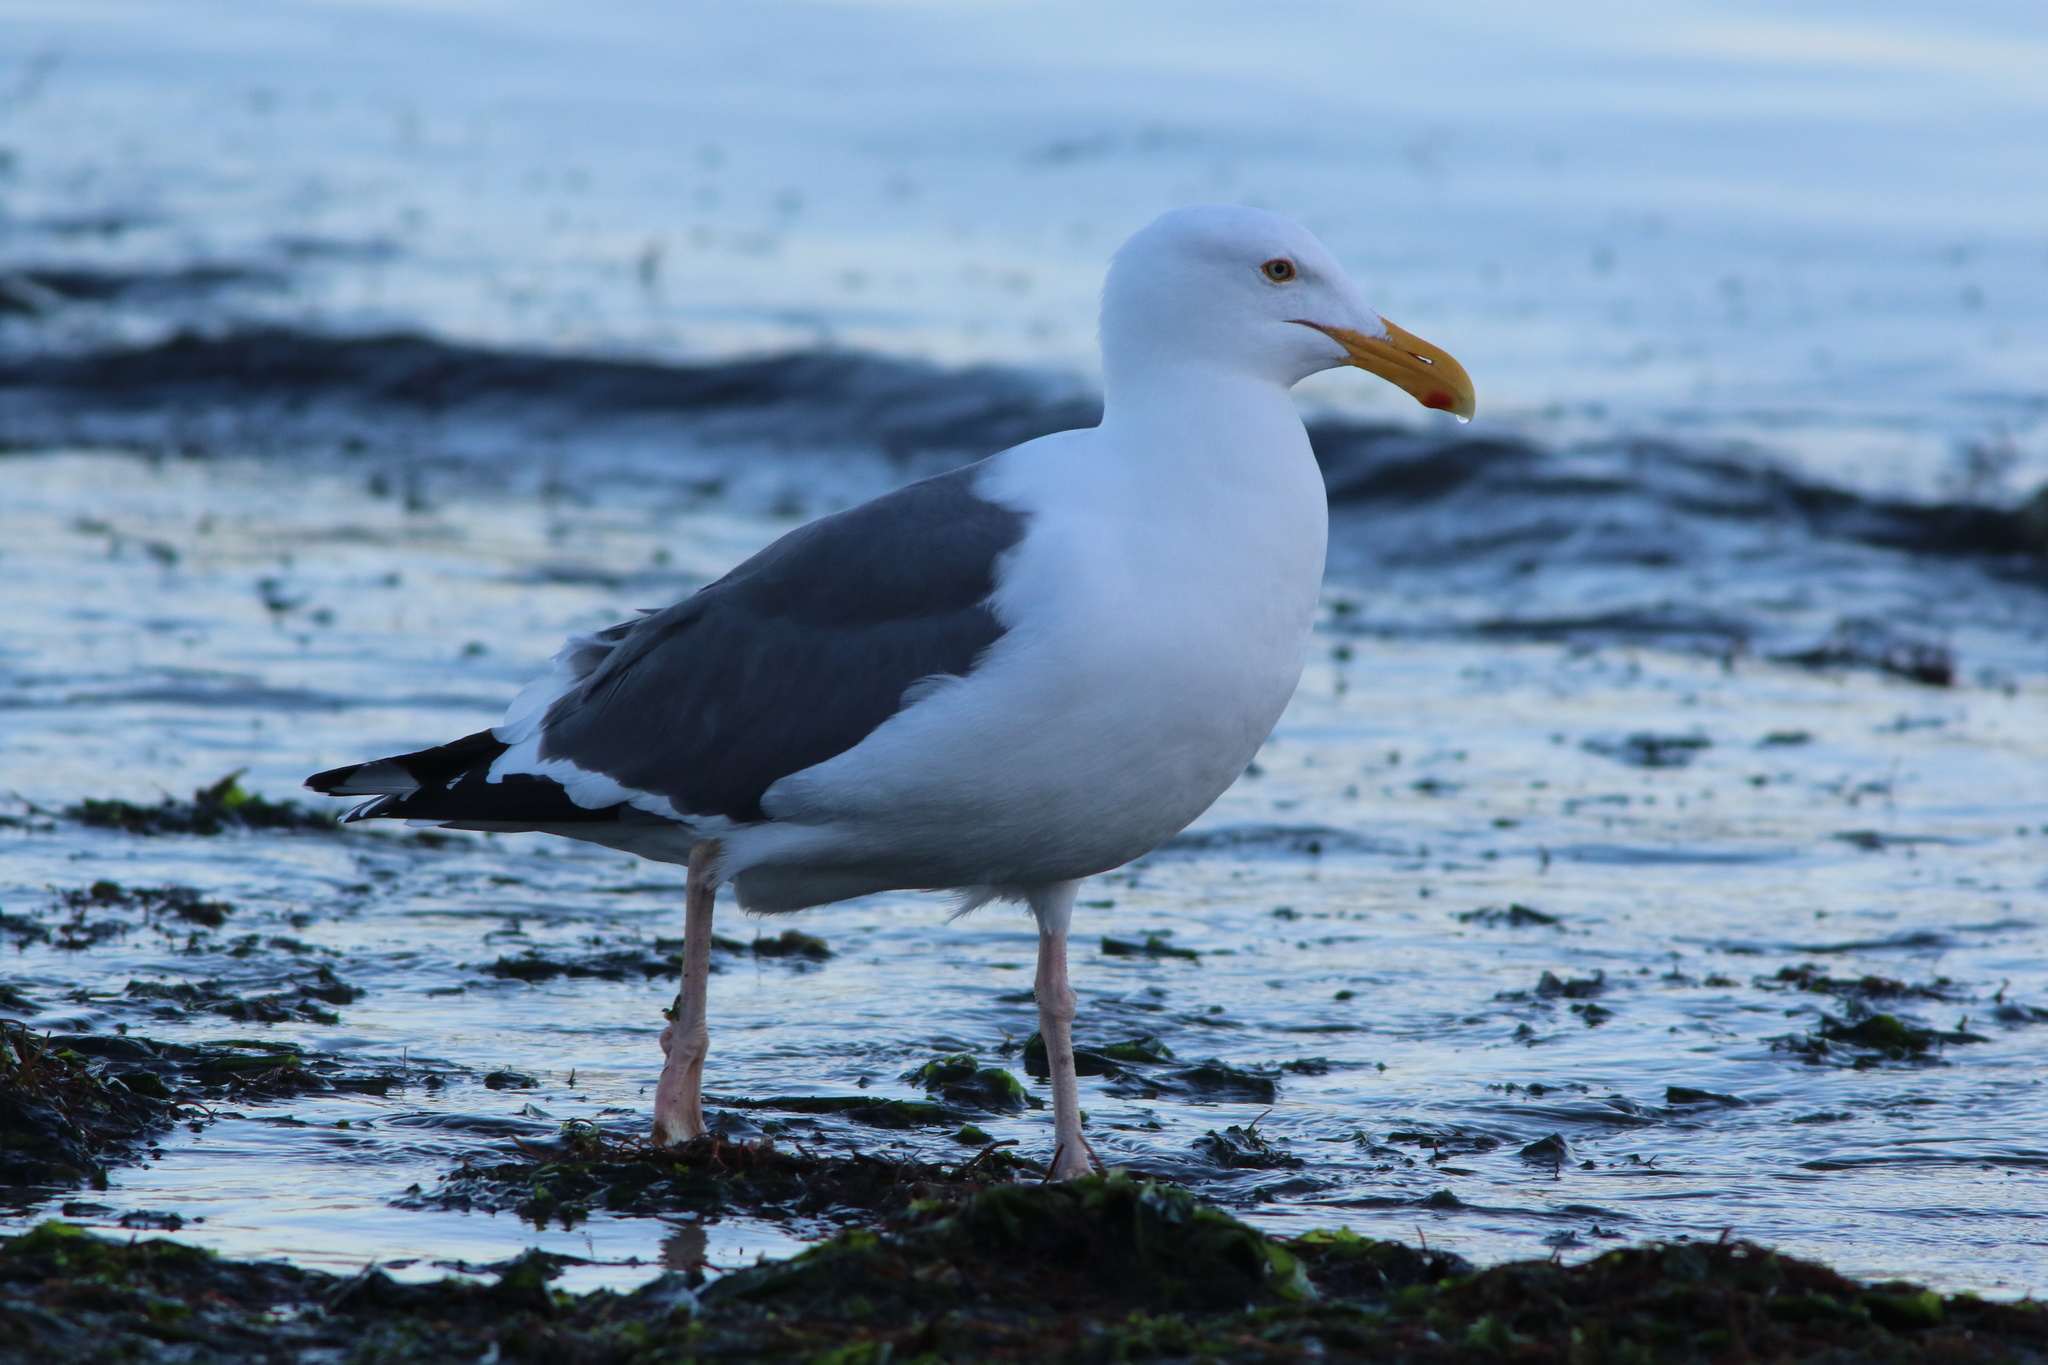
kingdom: Animalia
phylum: Chordata
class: Aves
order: Charadriiformes
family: Laridae
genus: Larus
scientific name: Larus occidentalis
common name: Western gull
